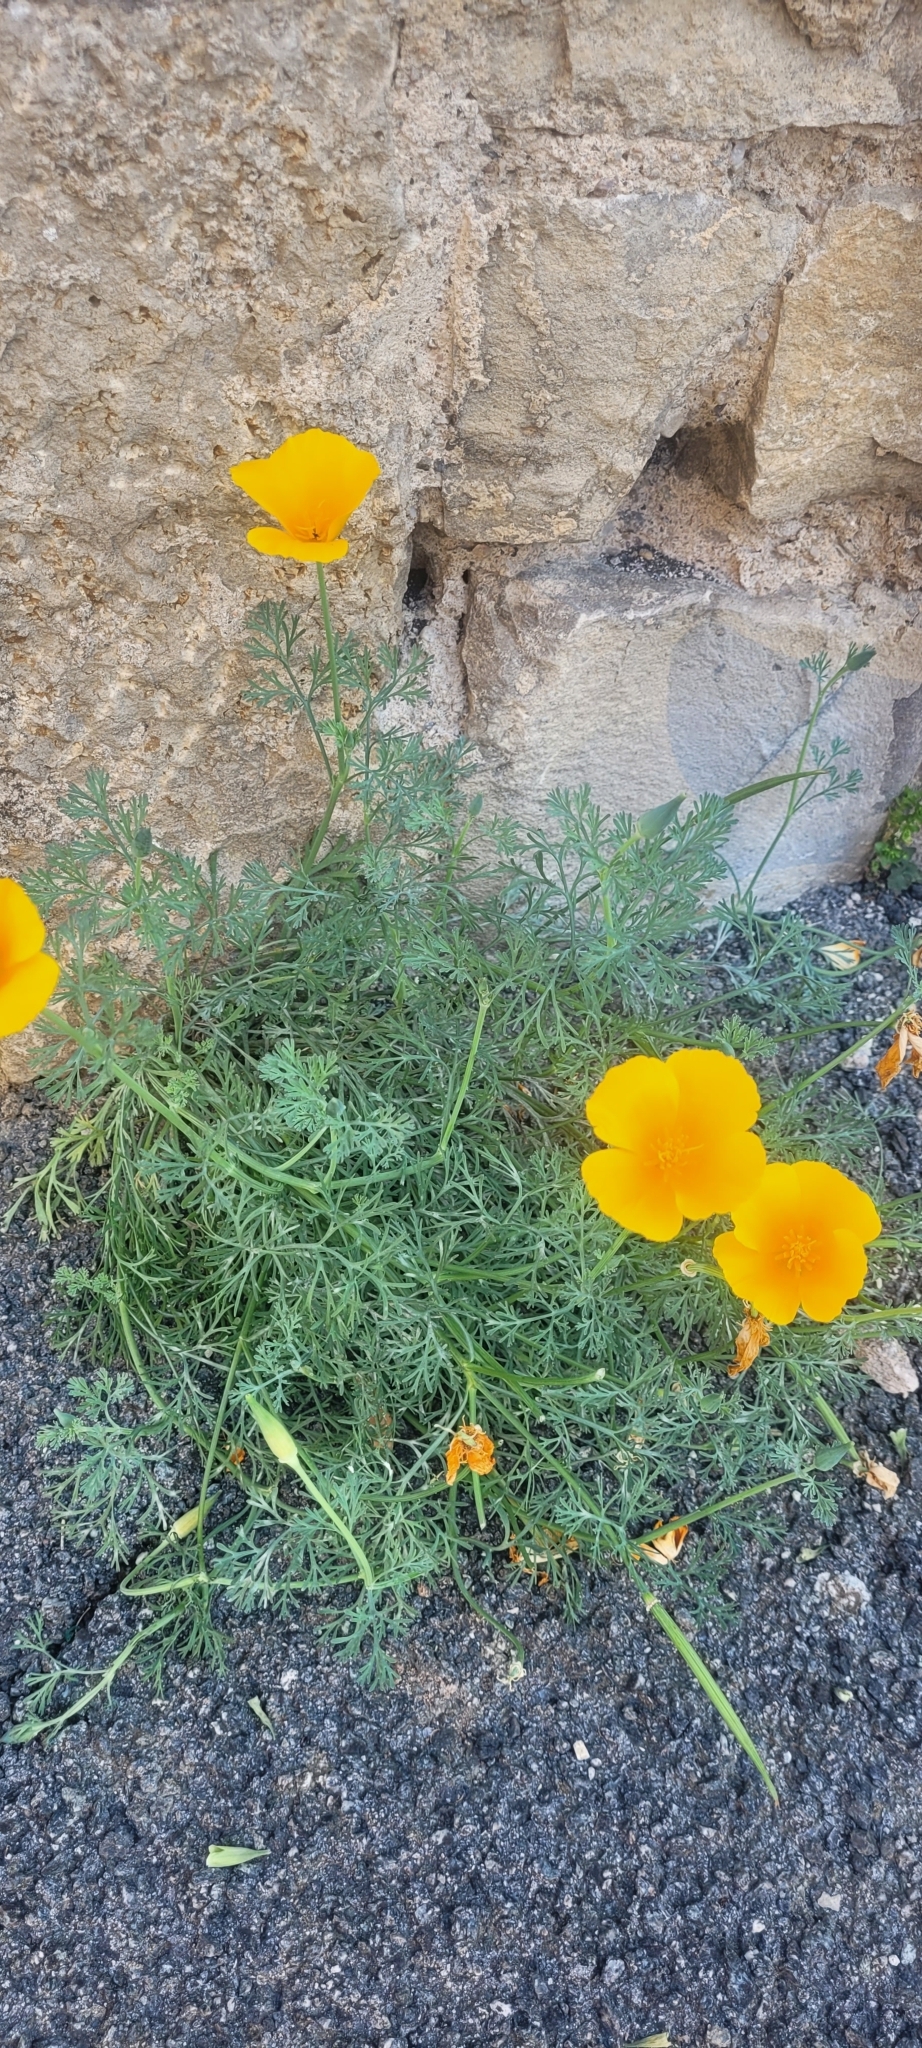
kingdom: Plantae
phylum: Tracheophyta
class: Magnoliopsida
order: Ranunculales
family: Papaveraceae
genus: Eschscholzia
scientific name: Eschscholzia californica
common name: California poppy
